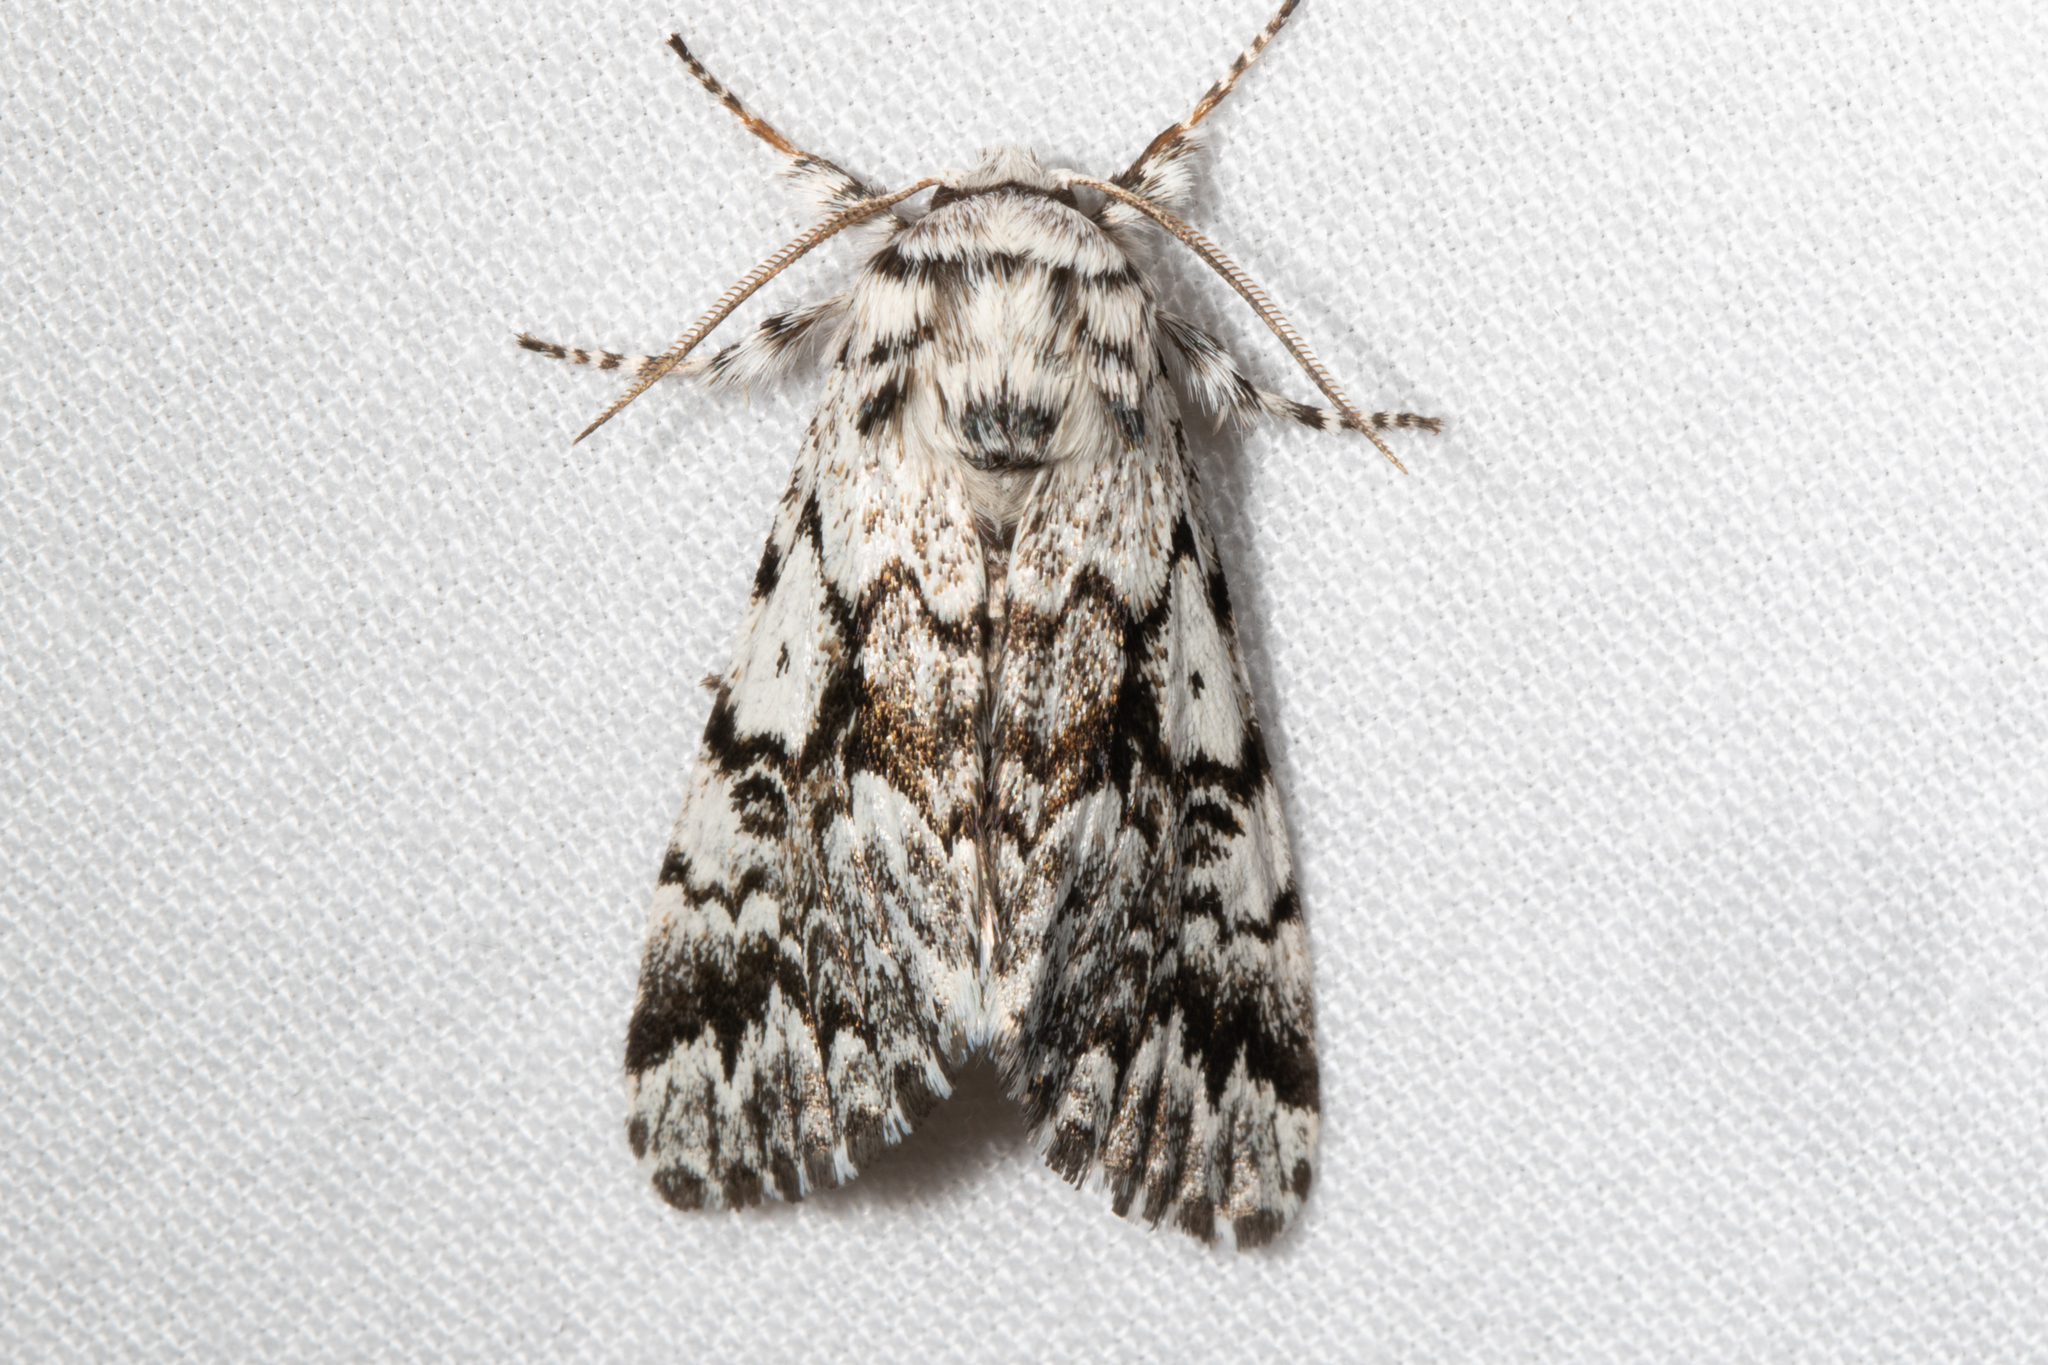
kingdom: Animalia
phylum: Arthropoda
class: Insecta
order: Lepidoptera
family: Noctuidae
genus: Panthea
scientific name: Panthea acronyctoides
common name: Black zigzag moth
